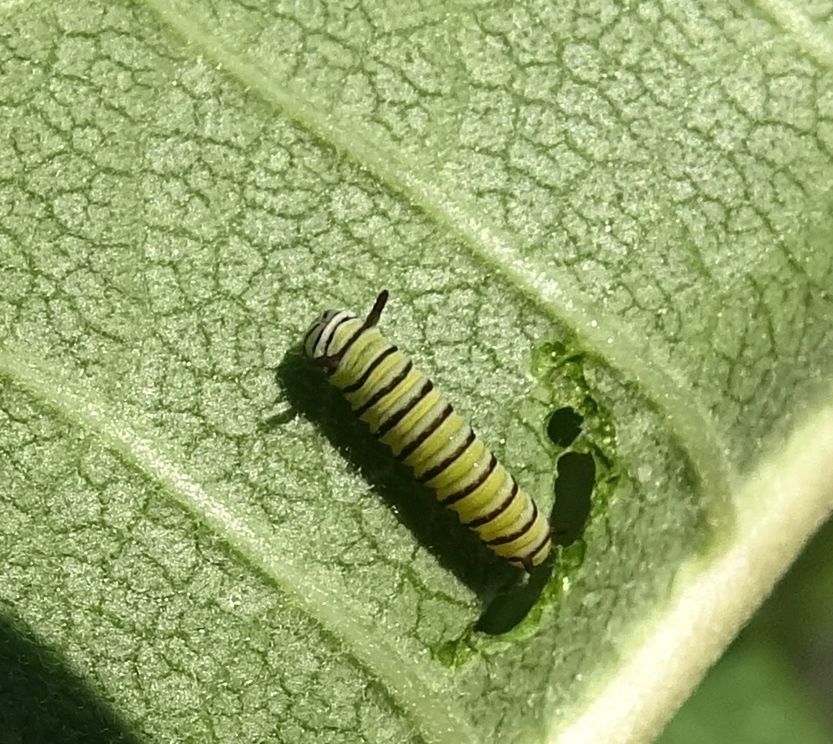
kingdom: Animalia
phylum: Arthropoda
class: Insecta
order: Lepidoptera
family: Nymphalidae
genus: Danaus
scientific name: Danaus plexippus
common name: Monarch
